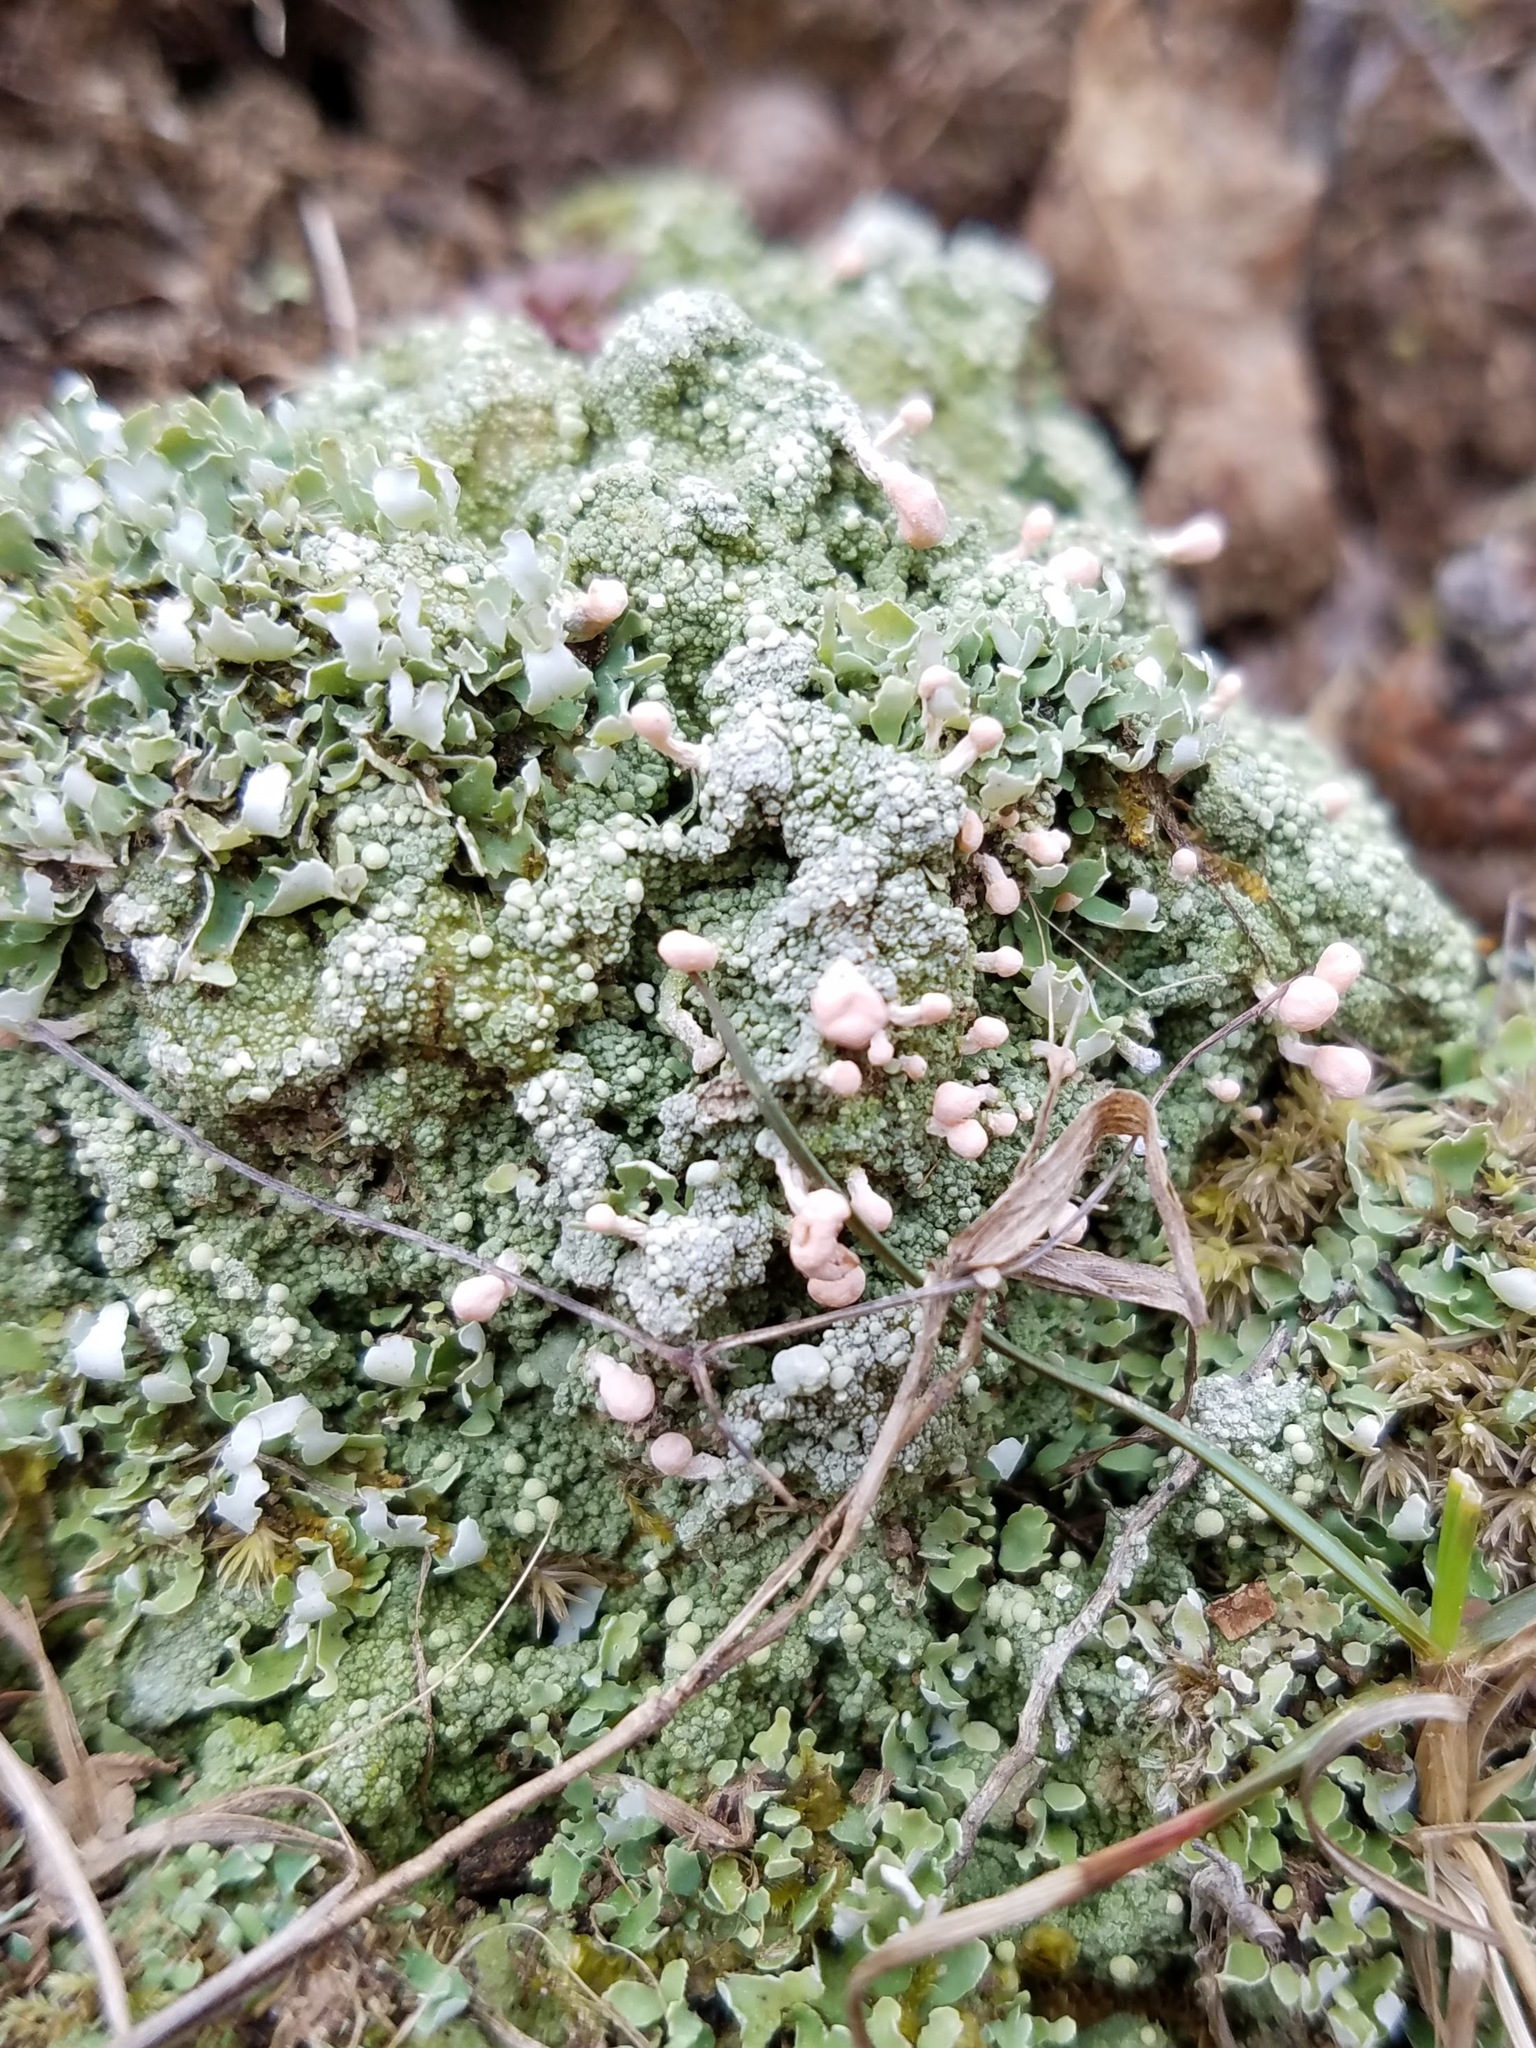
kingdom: Fungi
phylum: Ascomycota
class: Lecanoromycetes
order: Pertusariales
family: Icmadophilaceae
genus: Dibaeis
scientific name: Dibaeis baeomyces
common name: Pink earth lichen
